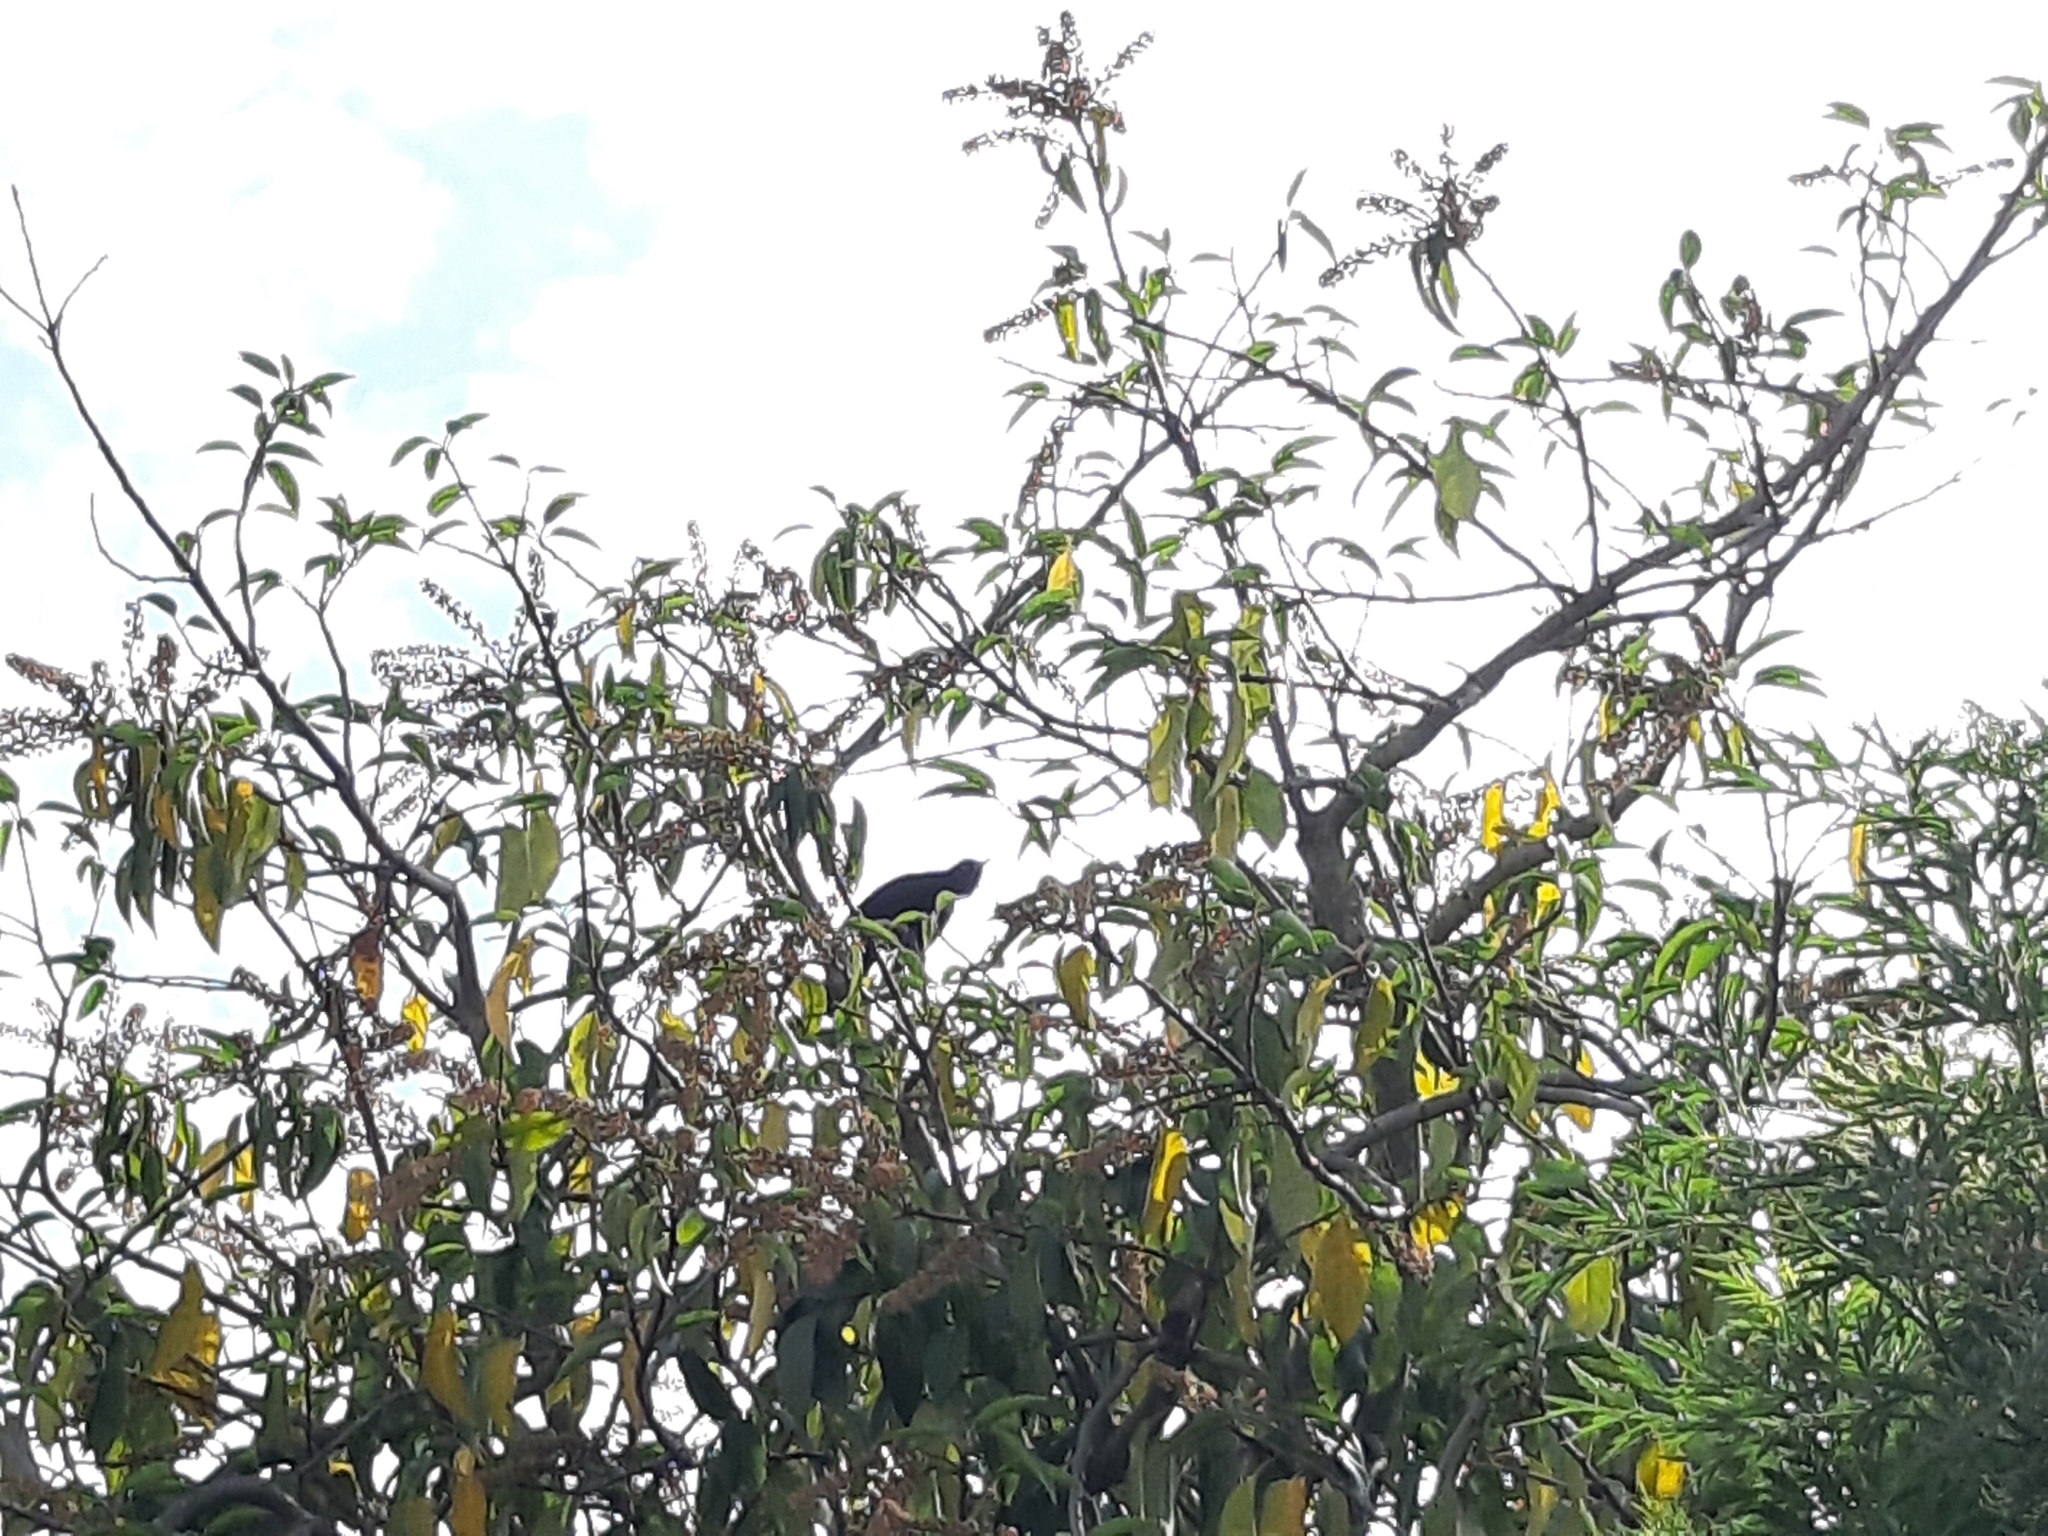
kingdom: Animalia
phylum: Chordata
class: Aves
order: Passeriformes
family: Turdidae
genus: Turdus
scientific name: Turdus merula
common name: Common blackbird
